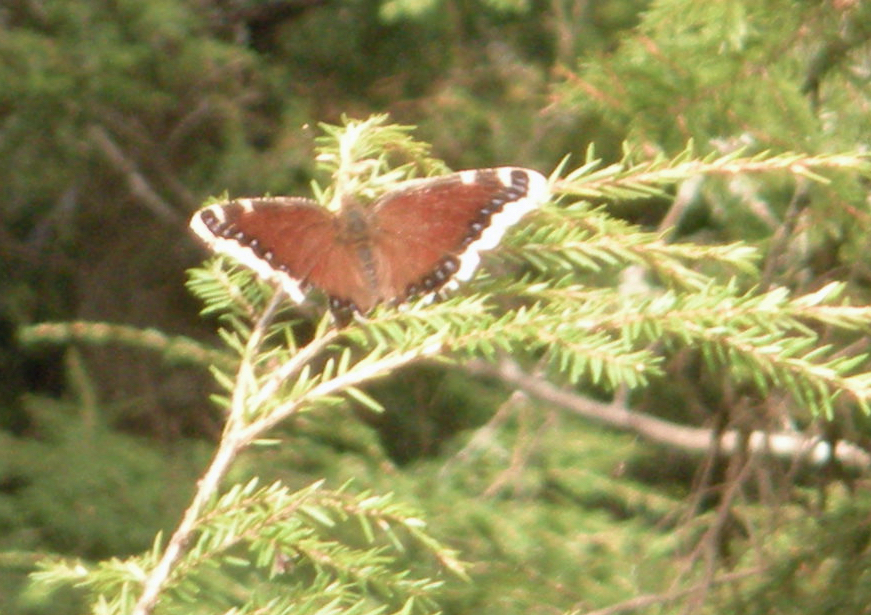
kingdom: Animalia
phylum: Arthropoda
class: Insecta
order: Lepidoptera
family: Nymphalidae
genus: Nymphalis
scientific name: Nymphalis antiopa
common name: Camberwell beauty
